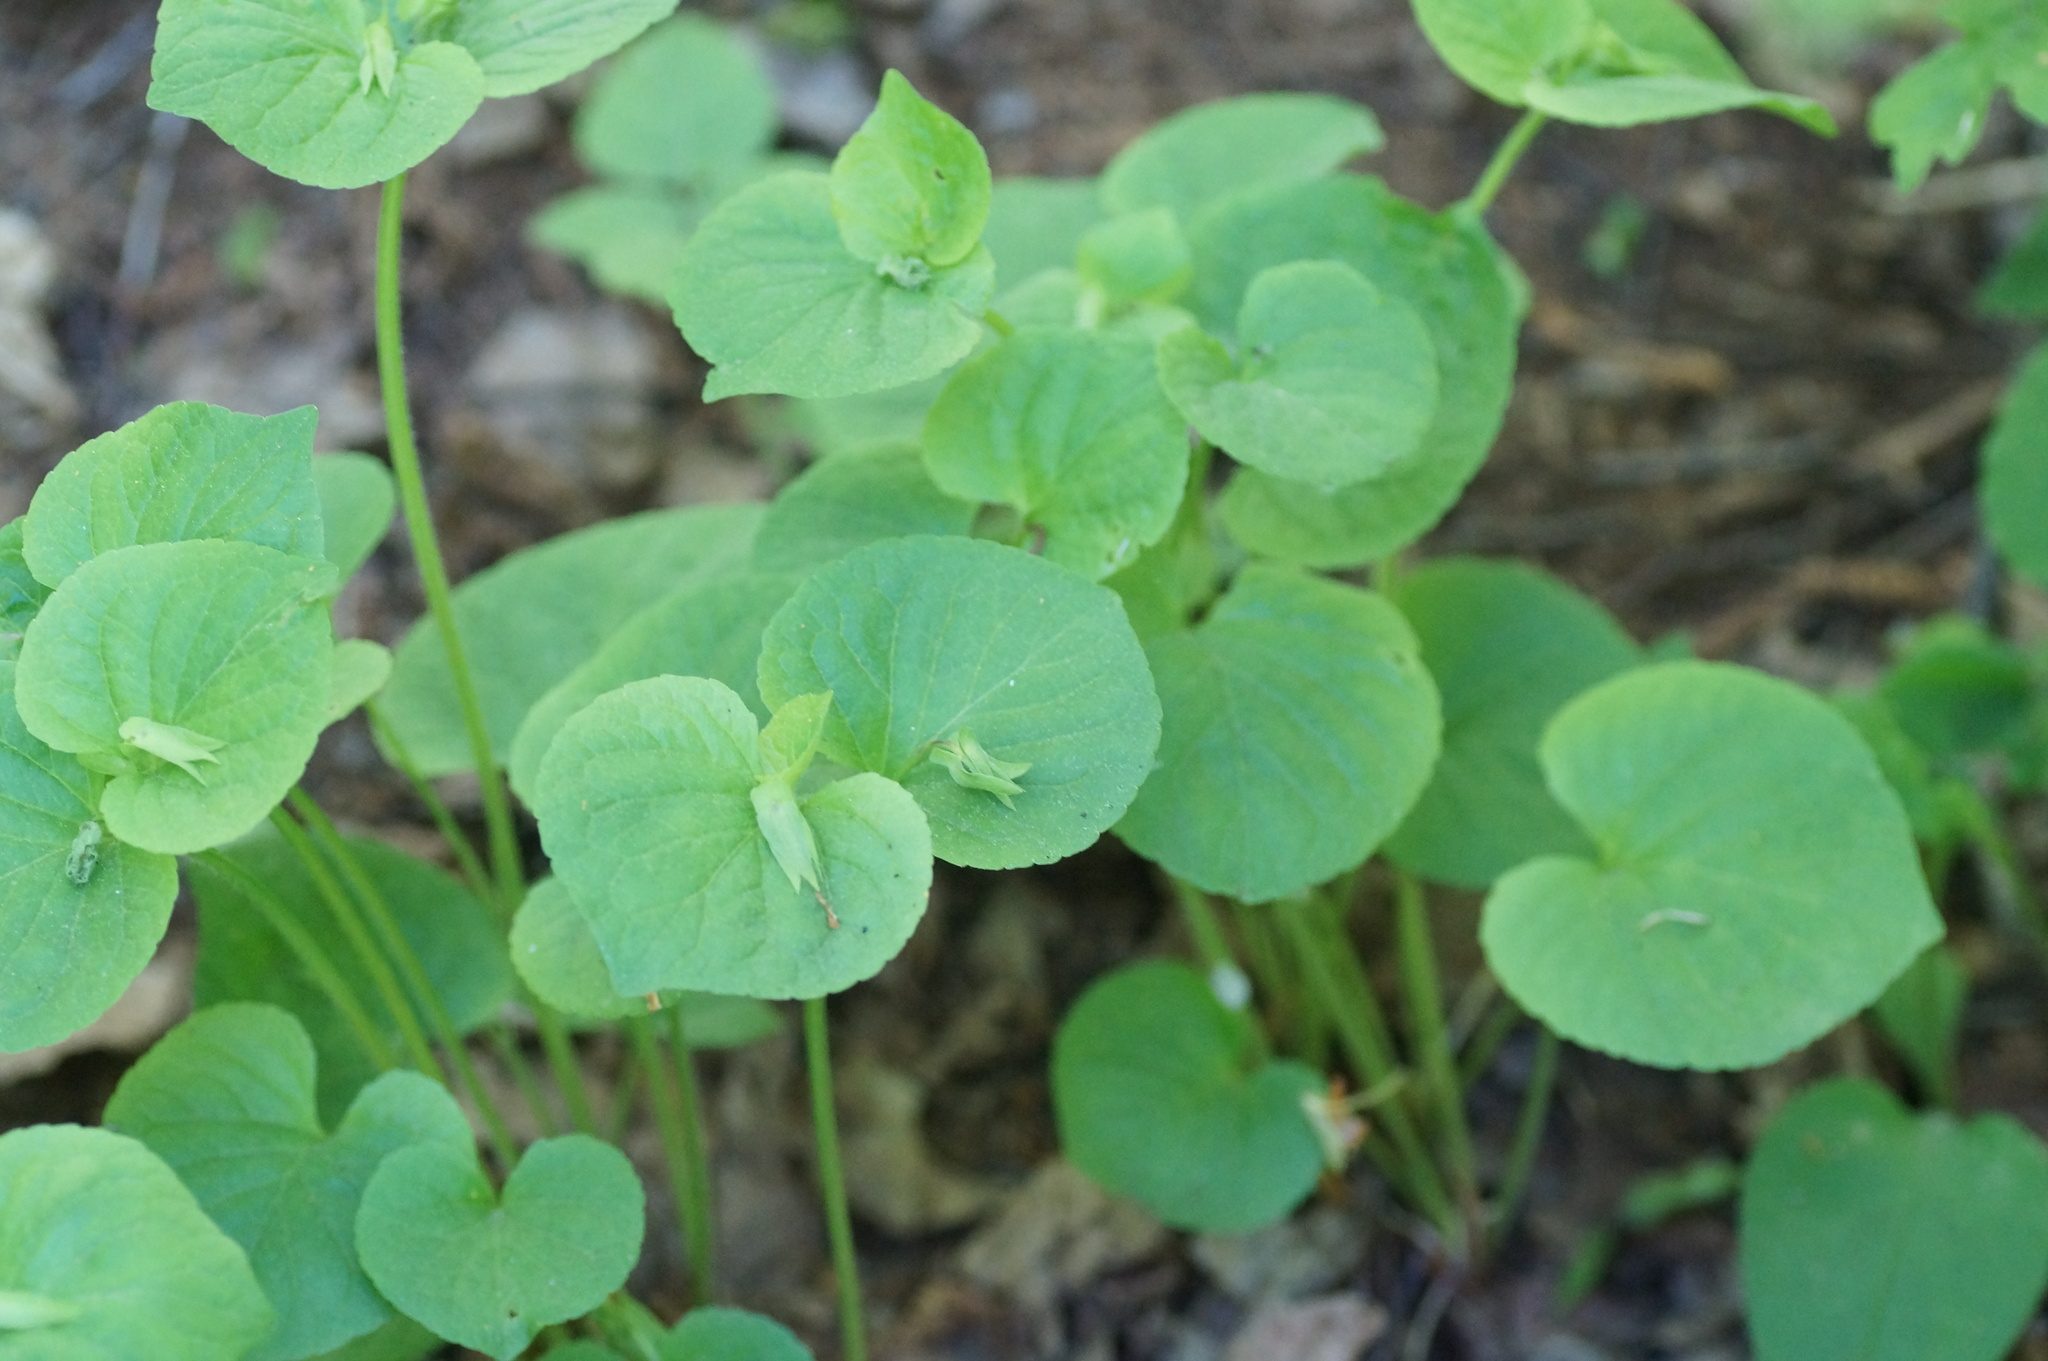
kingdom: Plantae
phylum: Tracheophyta
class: Magnoliopsida
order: Malpighiales
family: Violaceae
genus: Viola
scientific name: Viola mirabilis
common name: Wonder violet
